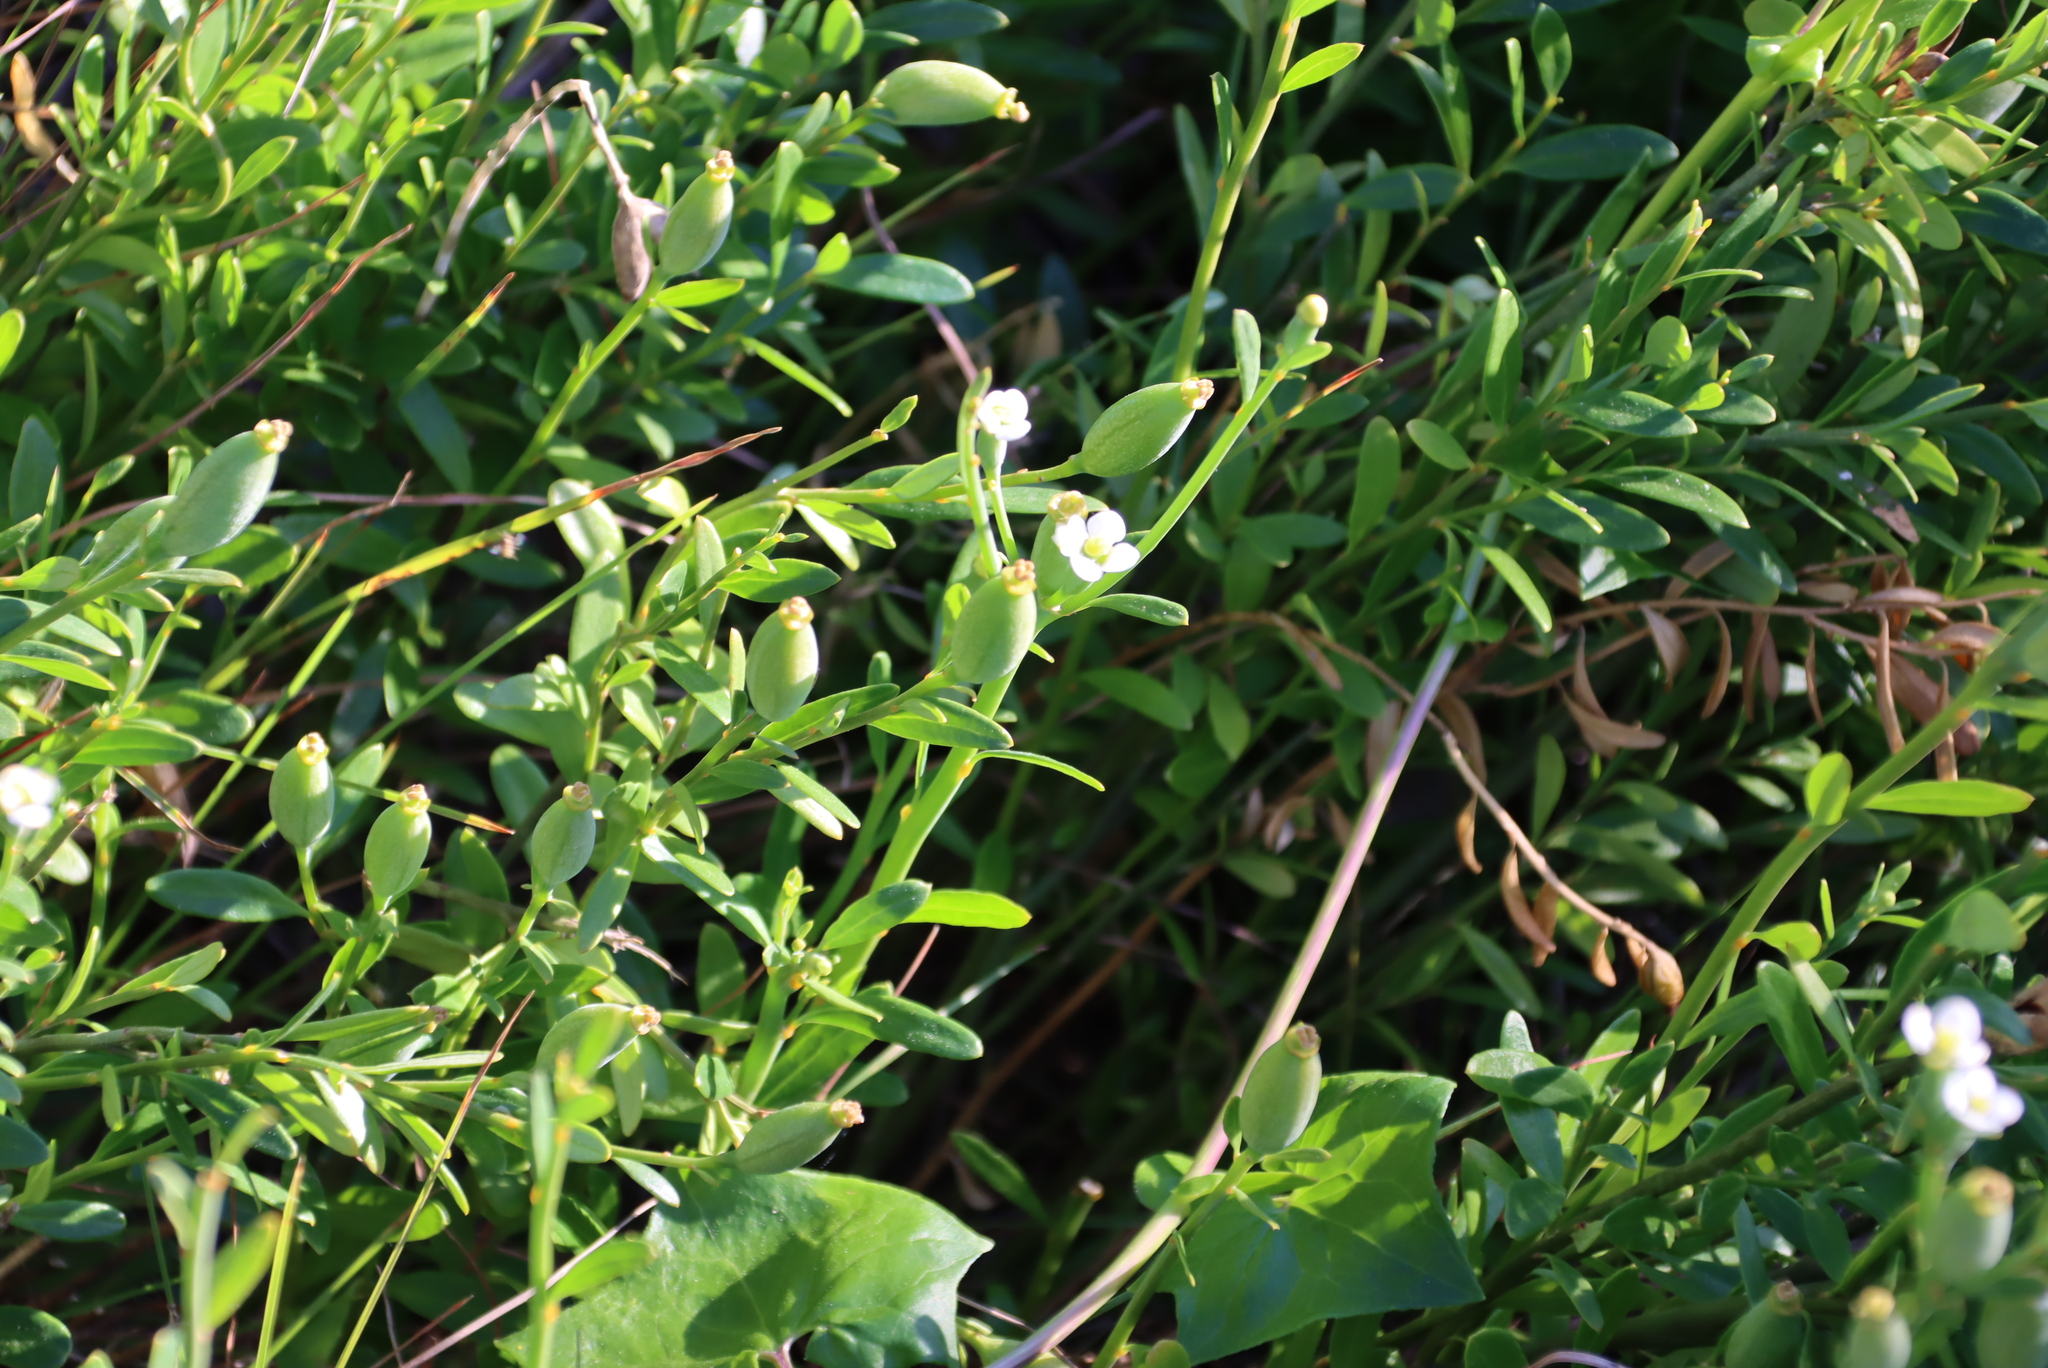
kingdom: Plantae
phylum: Tracheophyta
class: Magnoliopsida
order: Solanales
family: Montiniaceae
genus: Montinia
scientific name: Montinia caryophyllacea
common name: Wild clove-bush
